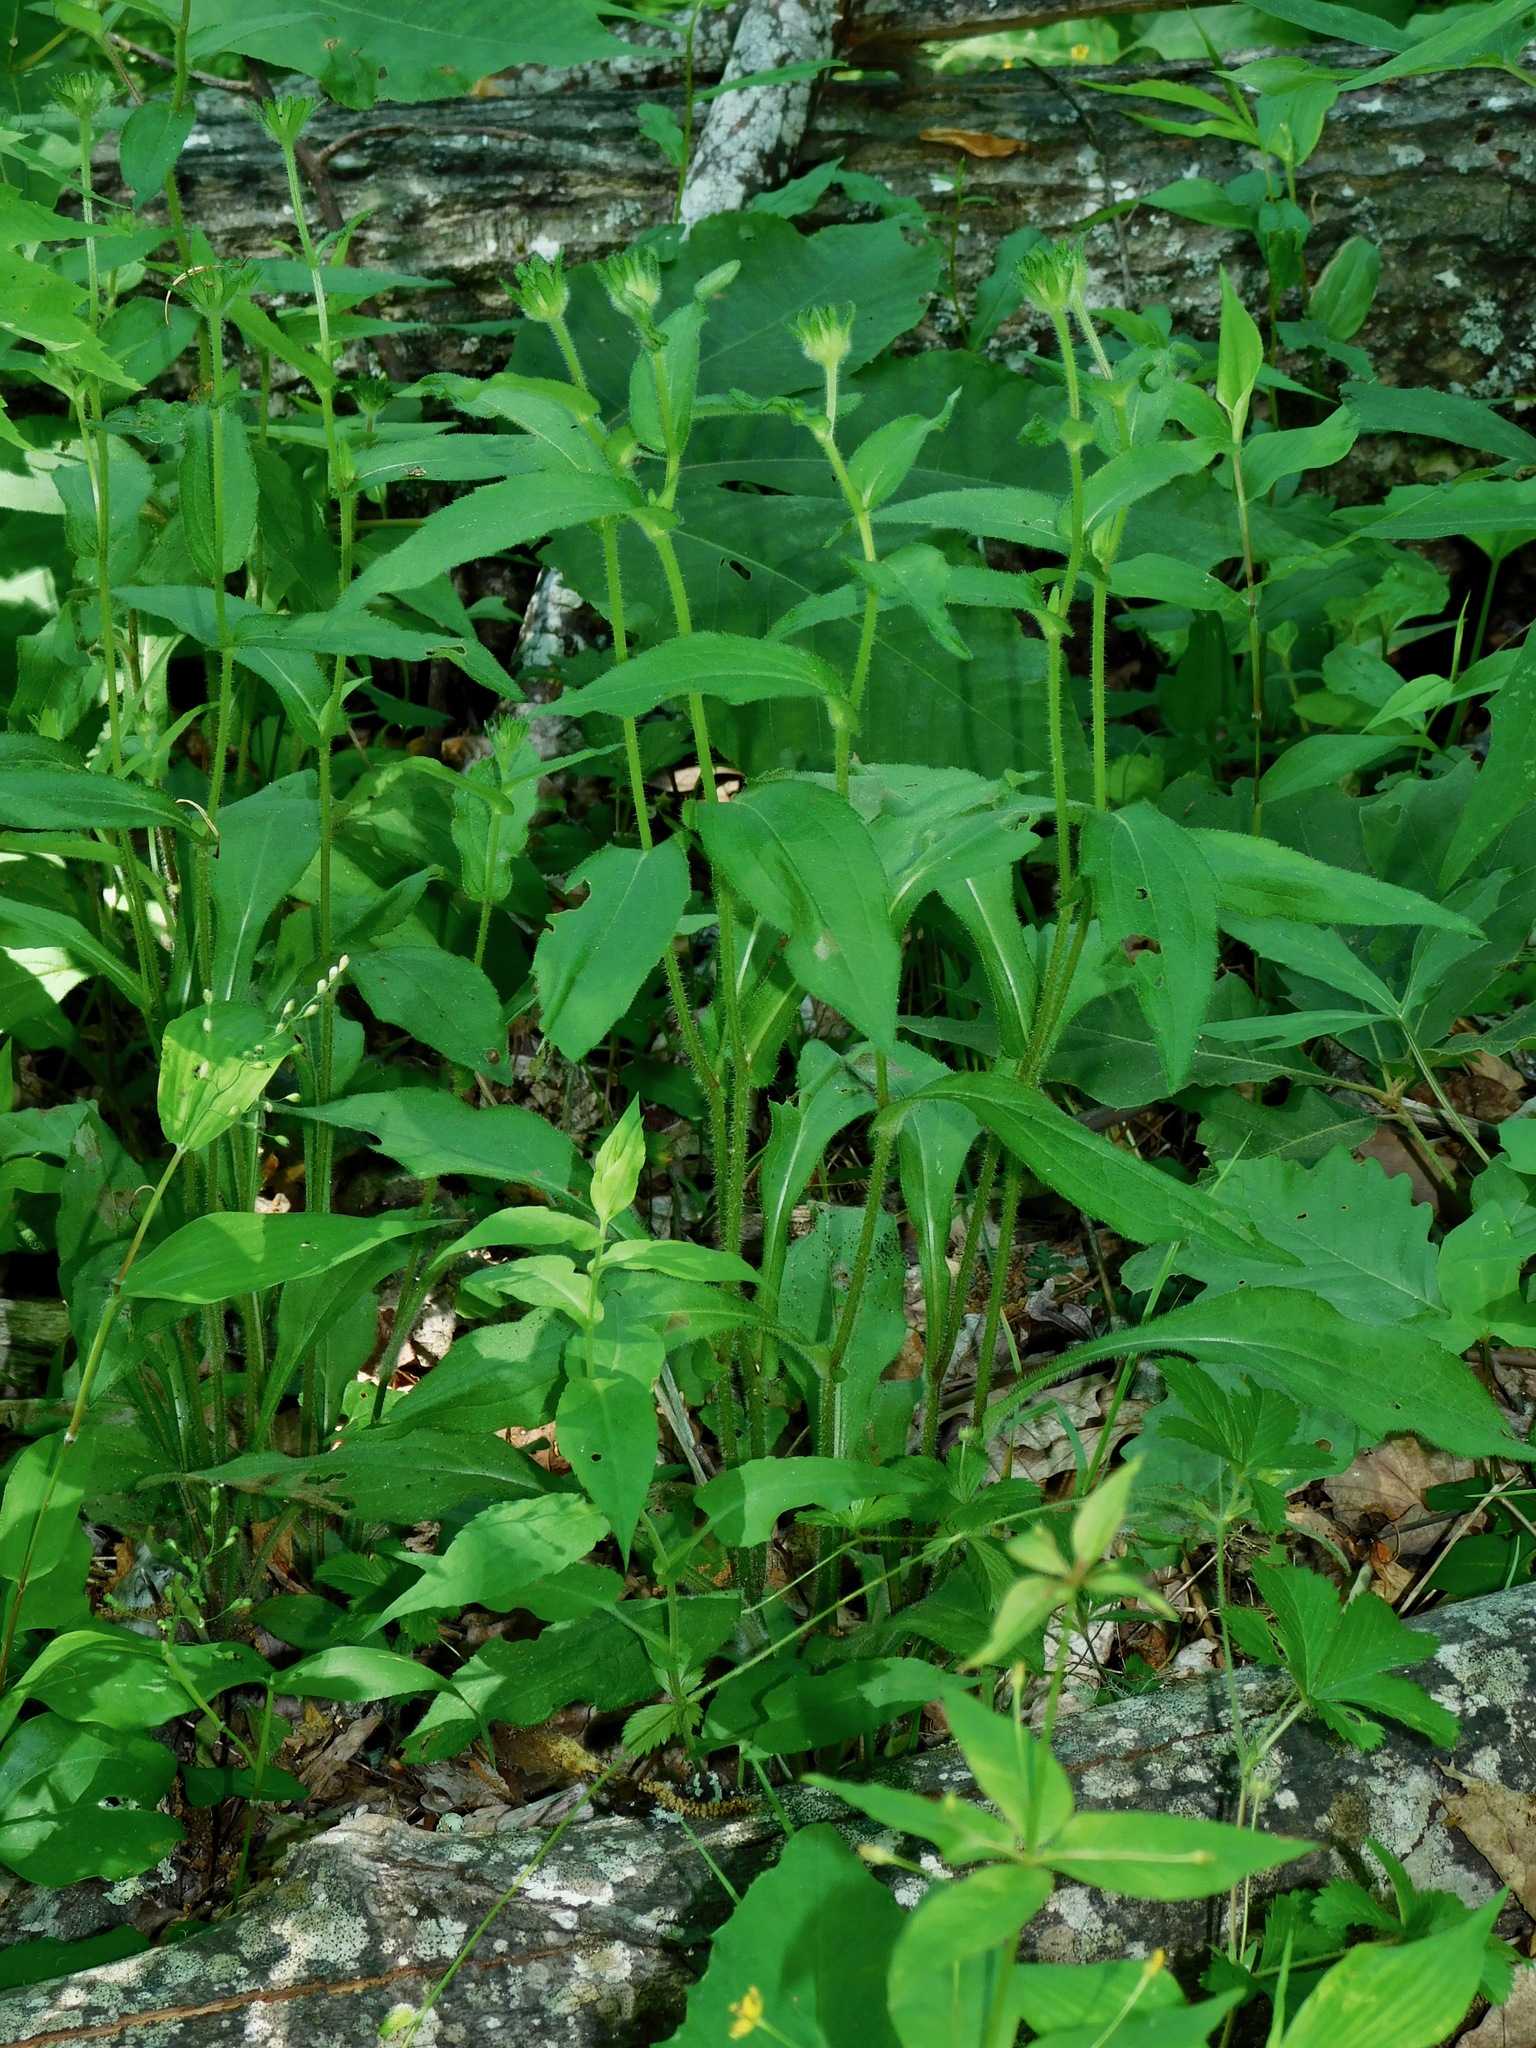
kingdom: Plantae
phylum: Tracheophyta
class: Magnoliopsida
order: Asterales
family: Asteraceae
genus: Rudbeckia
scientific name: Rudbeckia hirta
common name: Black-eyed-susan
